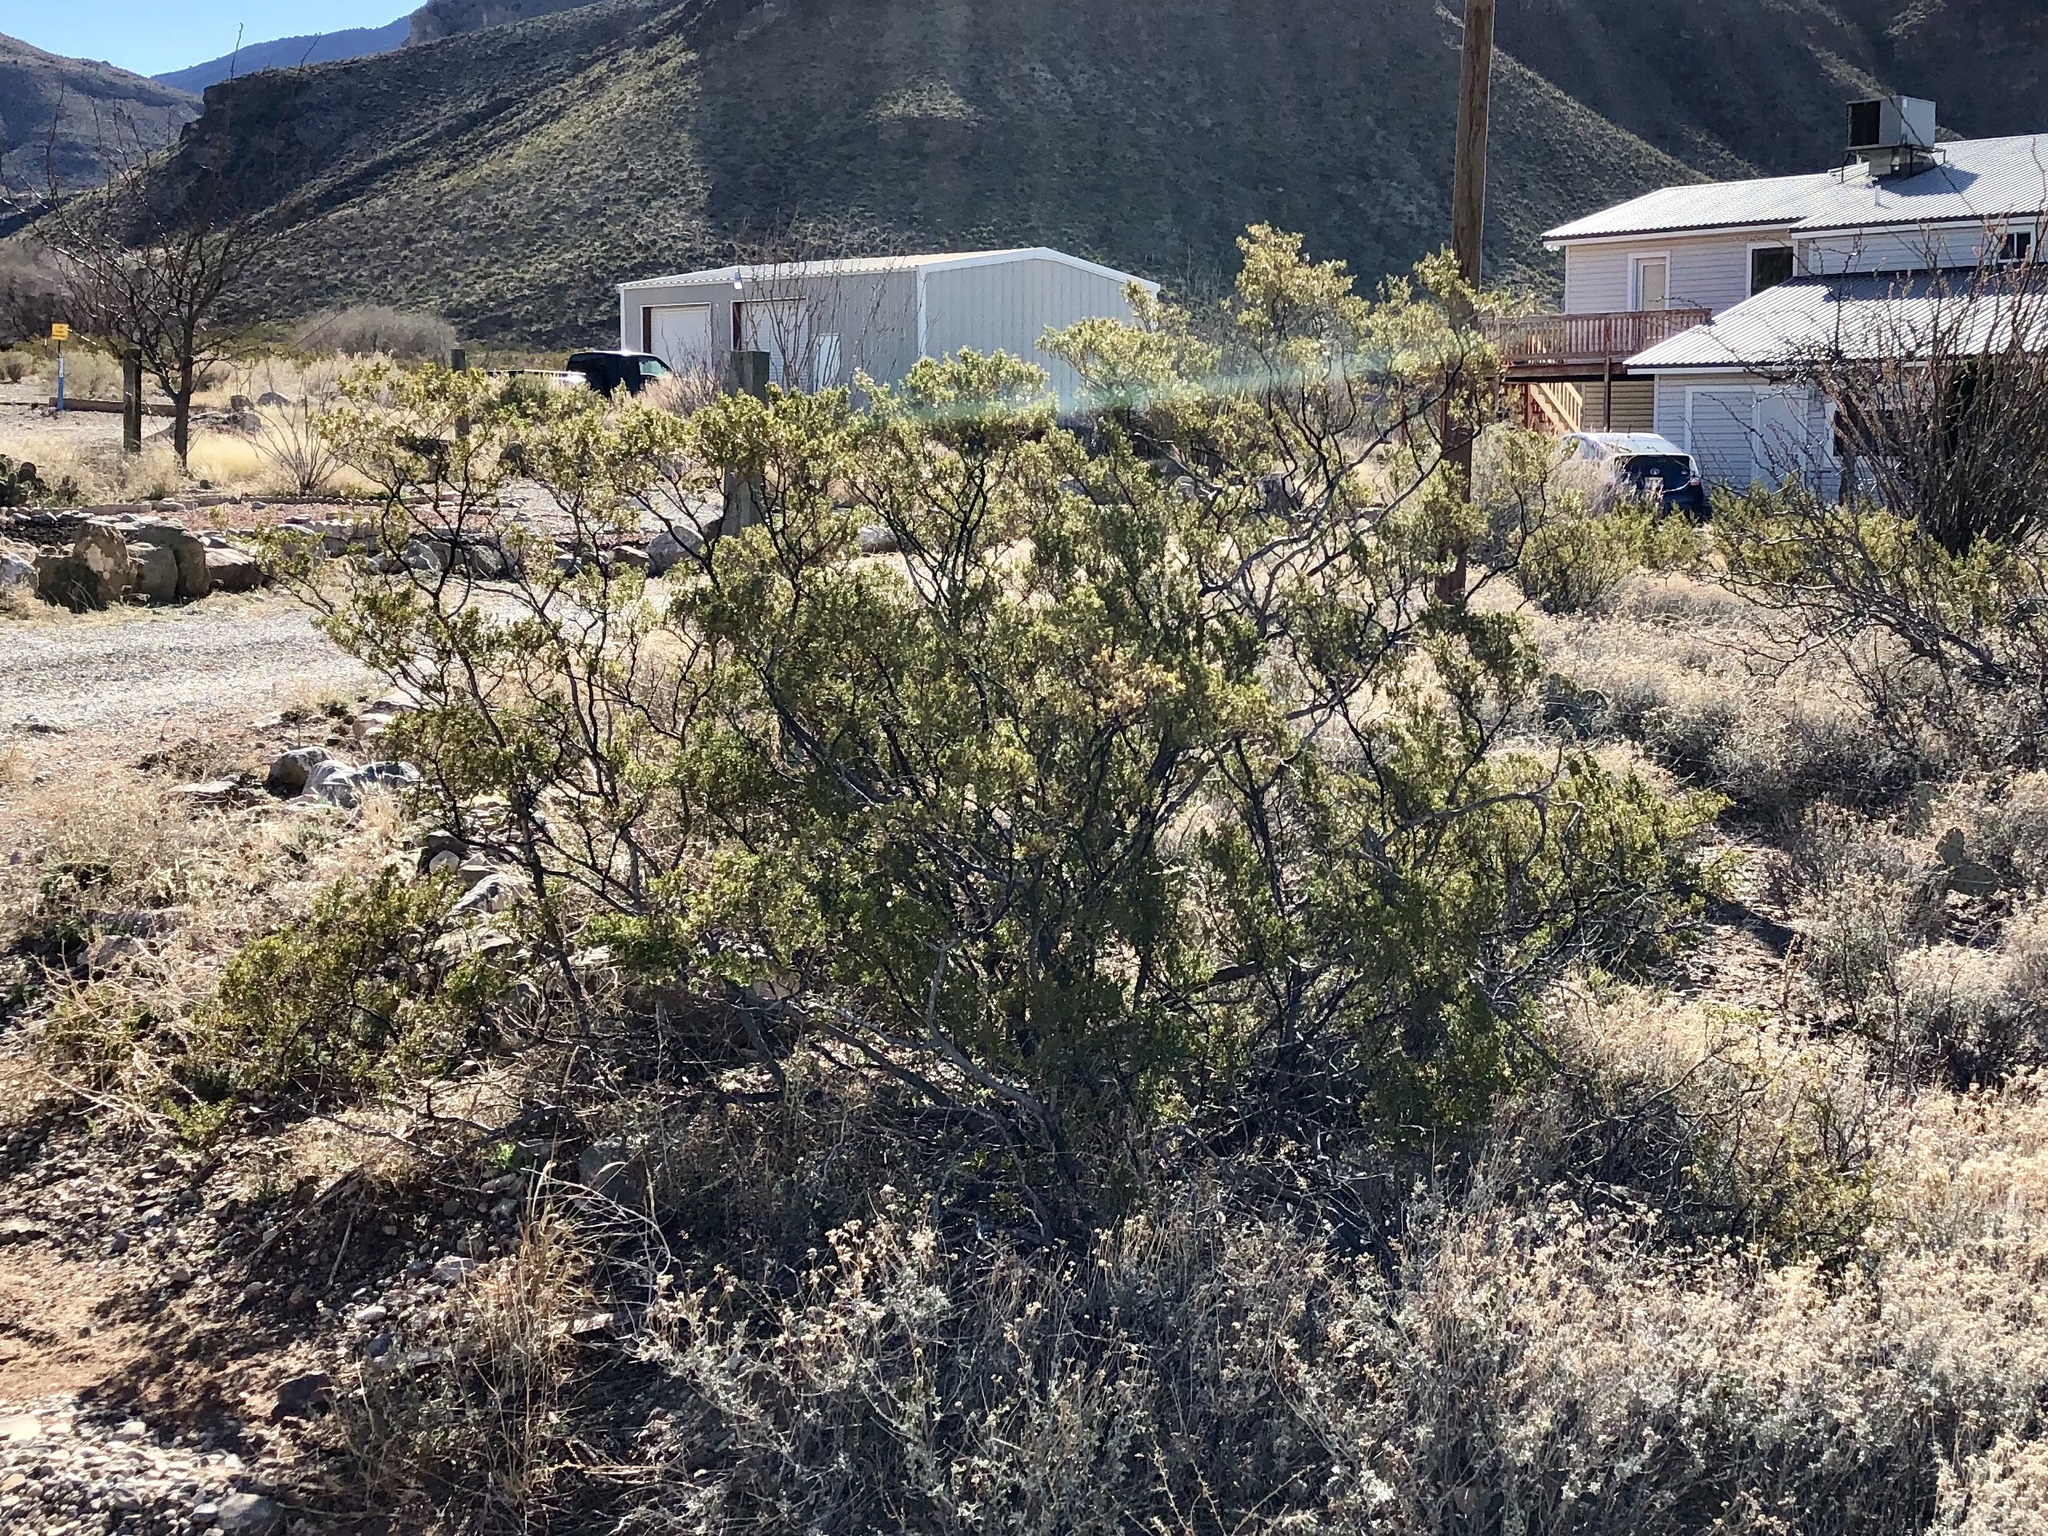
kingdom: Plantae
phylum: Tracheophyta
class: Magnoliopsida
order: Zygophyllales
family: Zygophyllaceae
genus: Larrea
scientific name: Larrea tridentata
